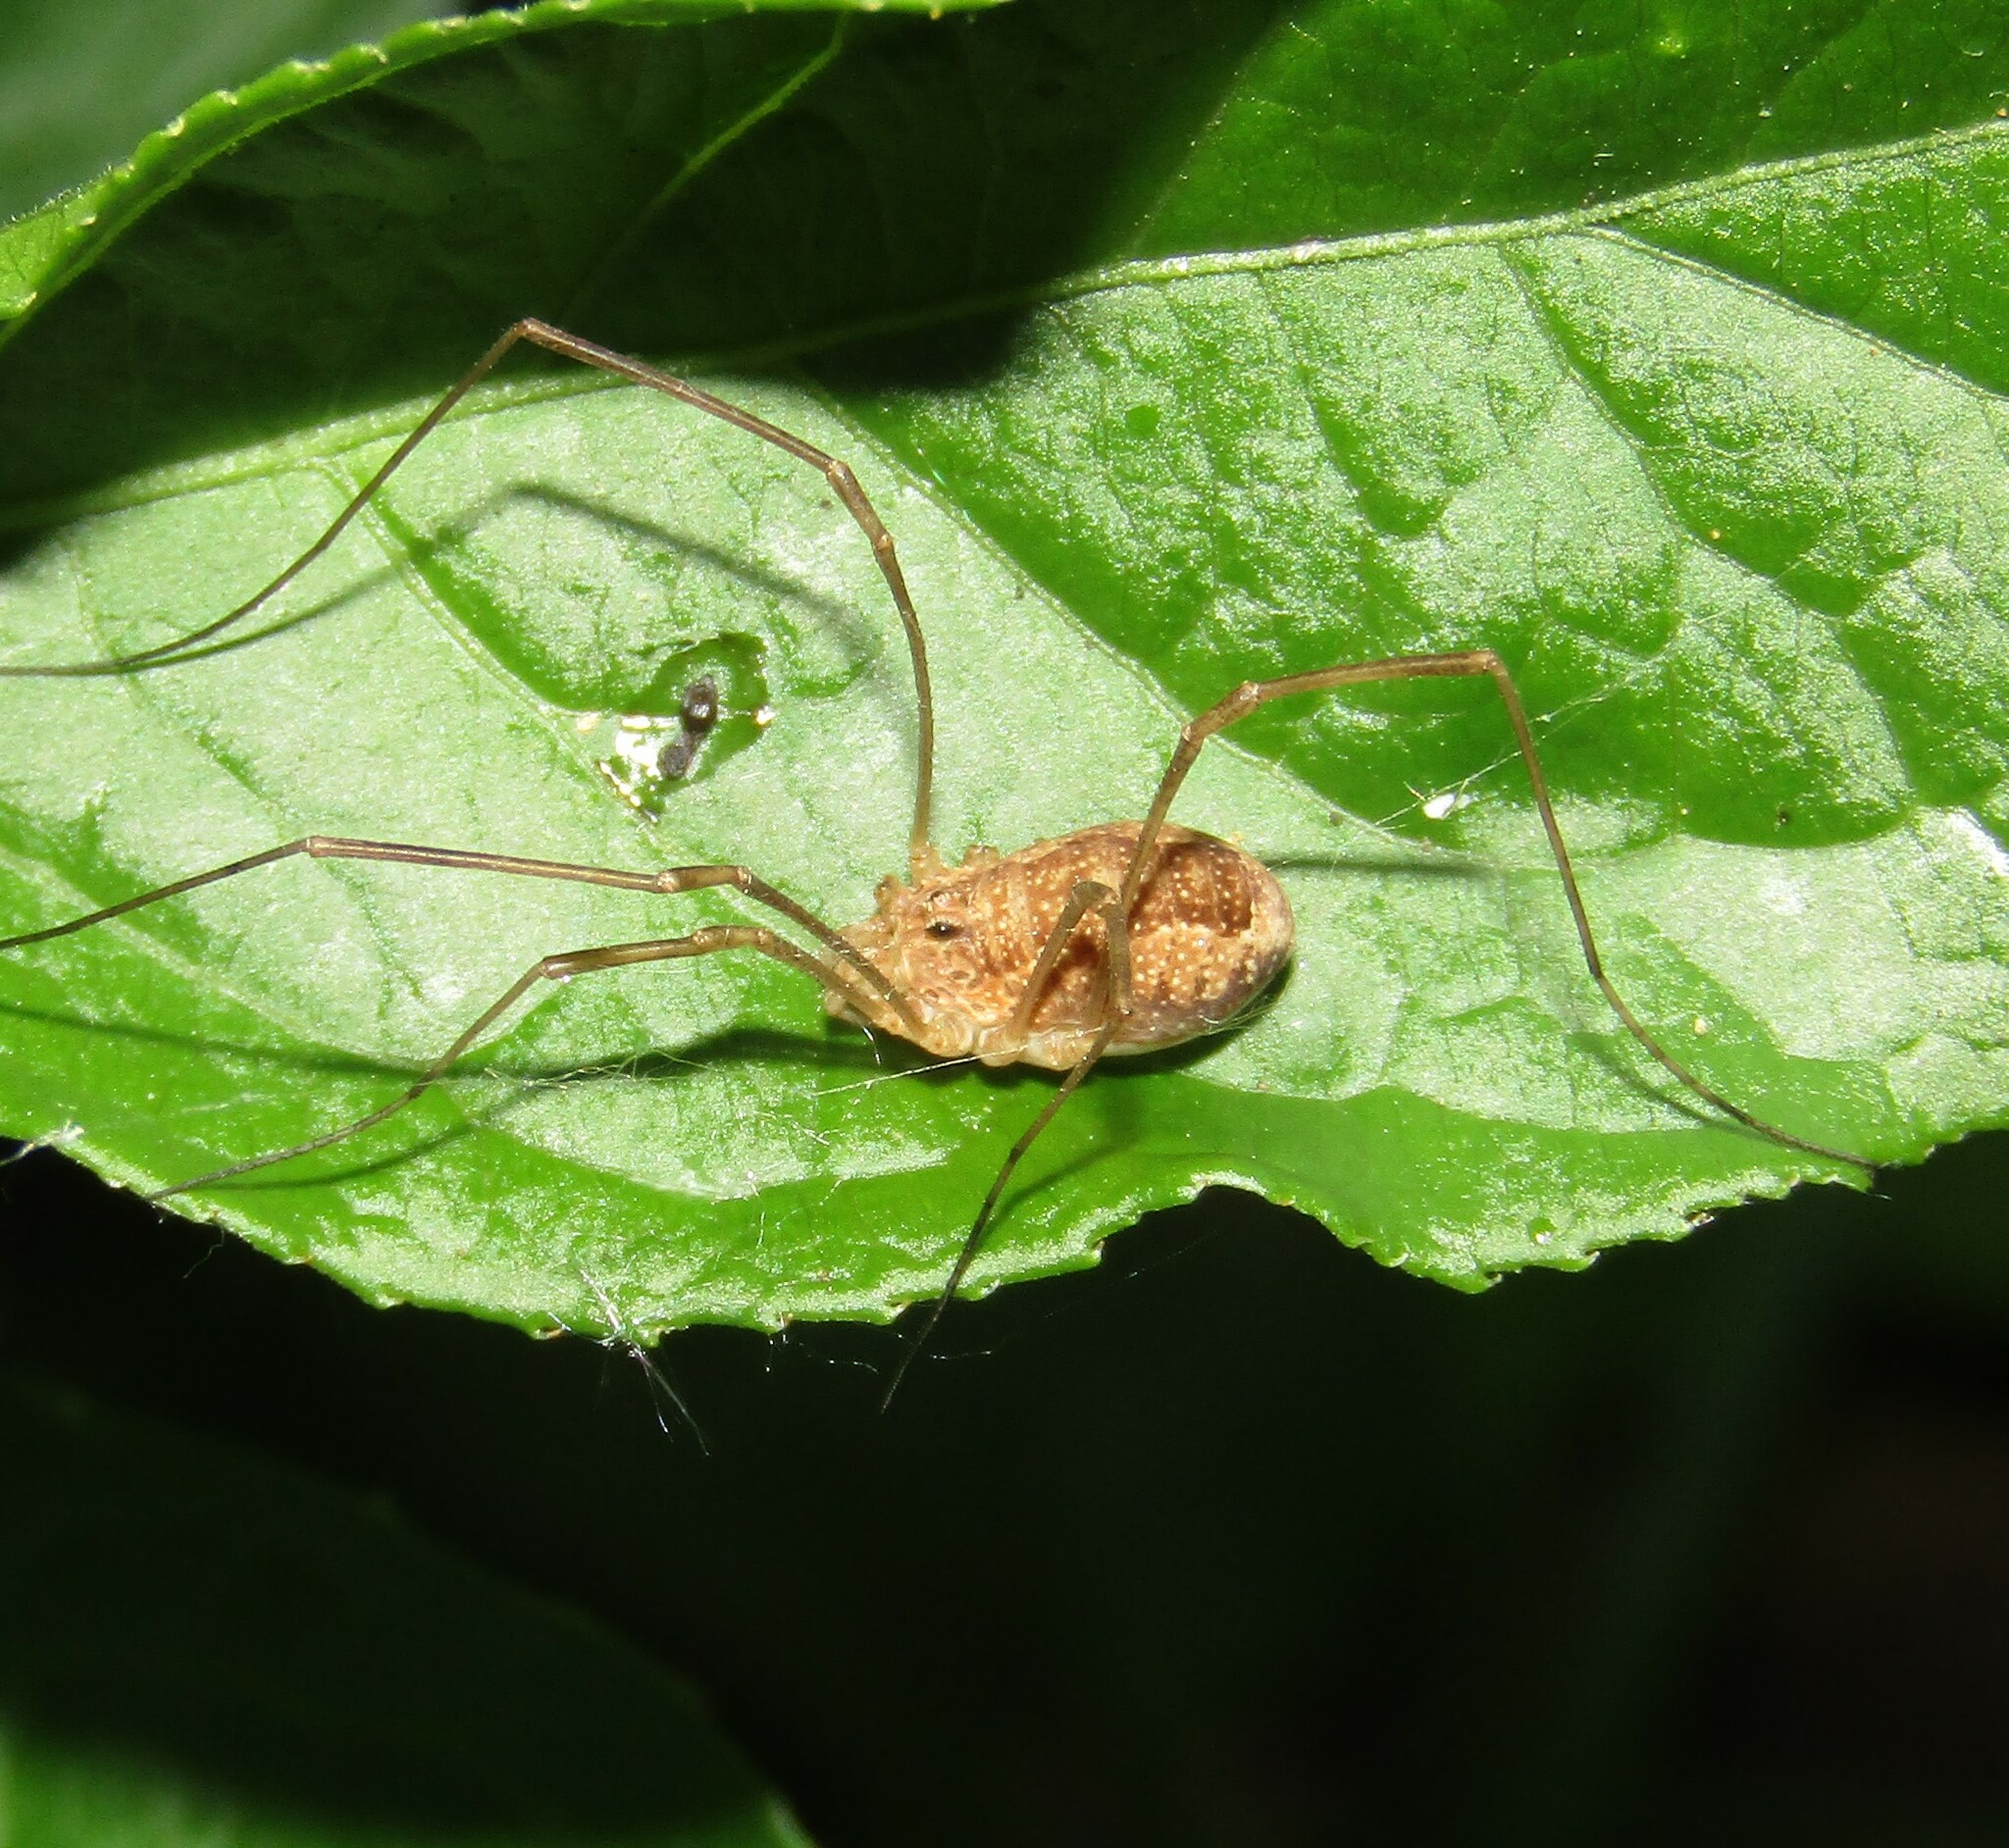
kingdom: Animalia
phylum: Arthropoda
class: Arachnida
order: Opiliones
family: Phalangiidae
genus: Rilaena
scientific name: Rilaena triangularis
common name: Spring harvestman
